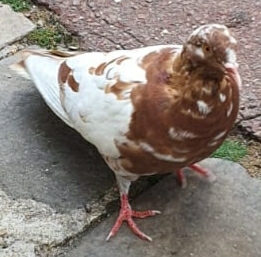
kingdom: Animalia
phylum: Chordata
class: Aves
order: Columbiformes
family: Columbidae
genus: Columba
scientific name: Columba livia
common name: Rock pigeon
